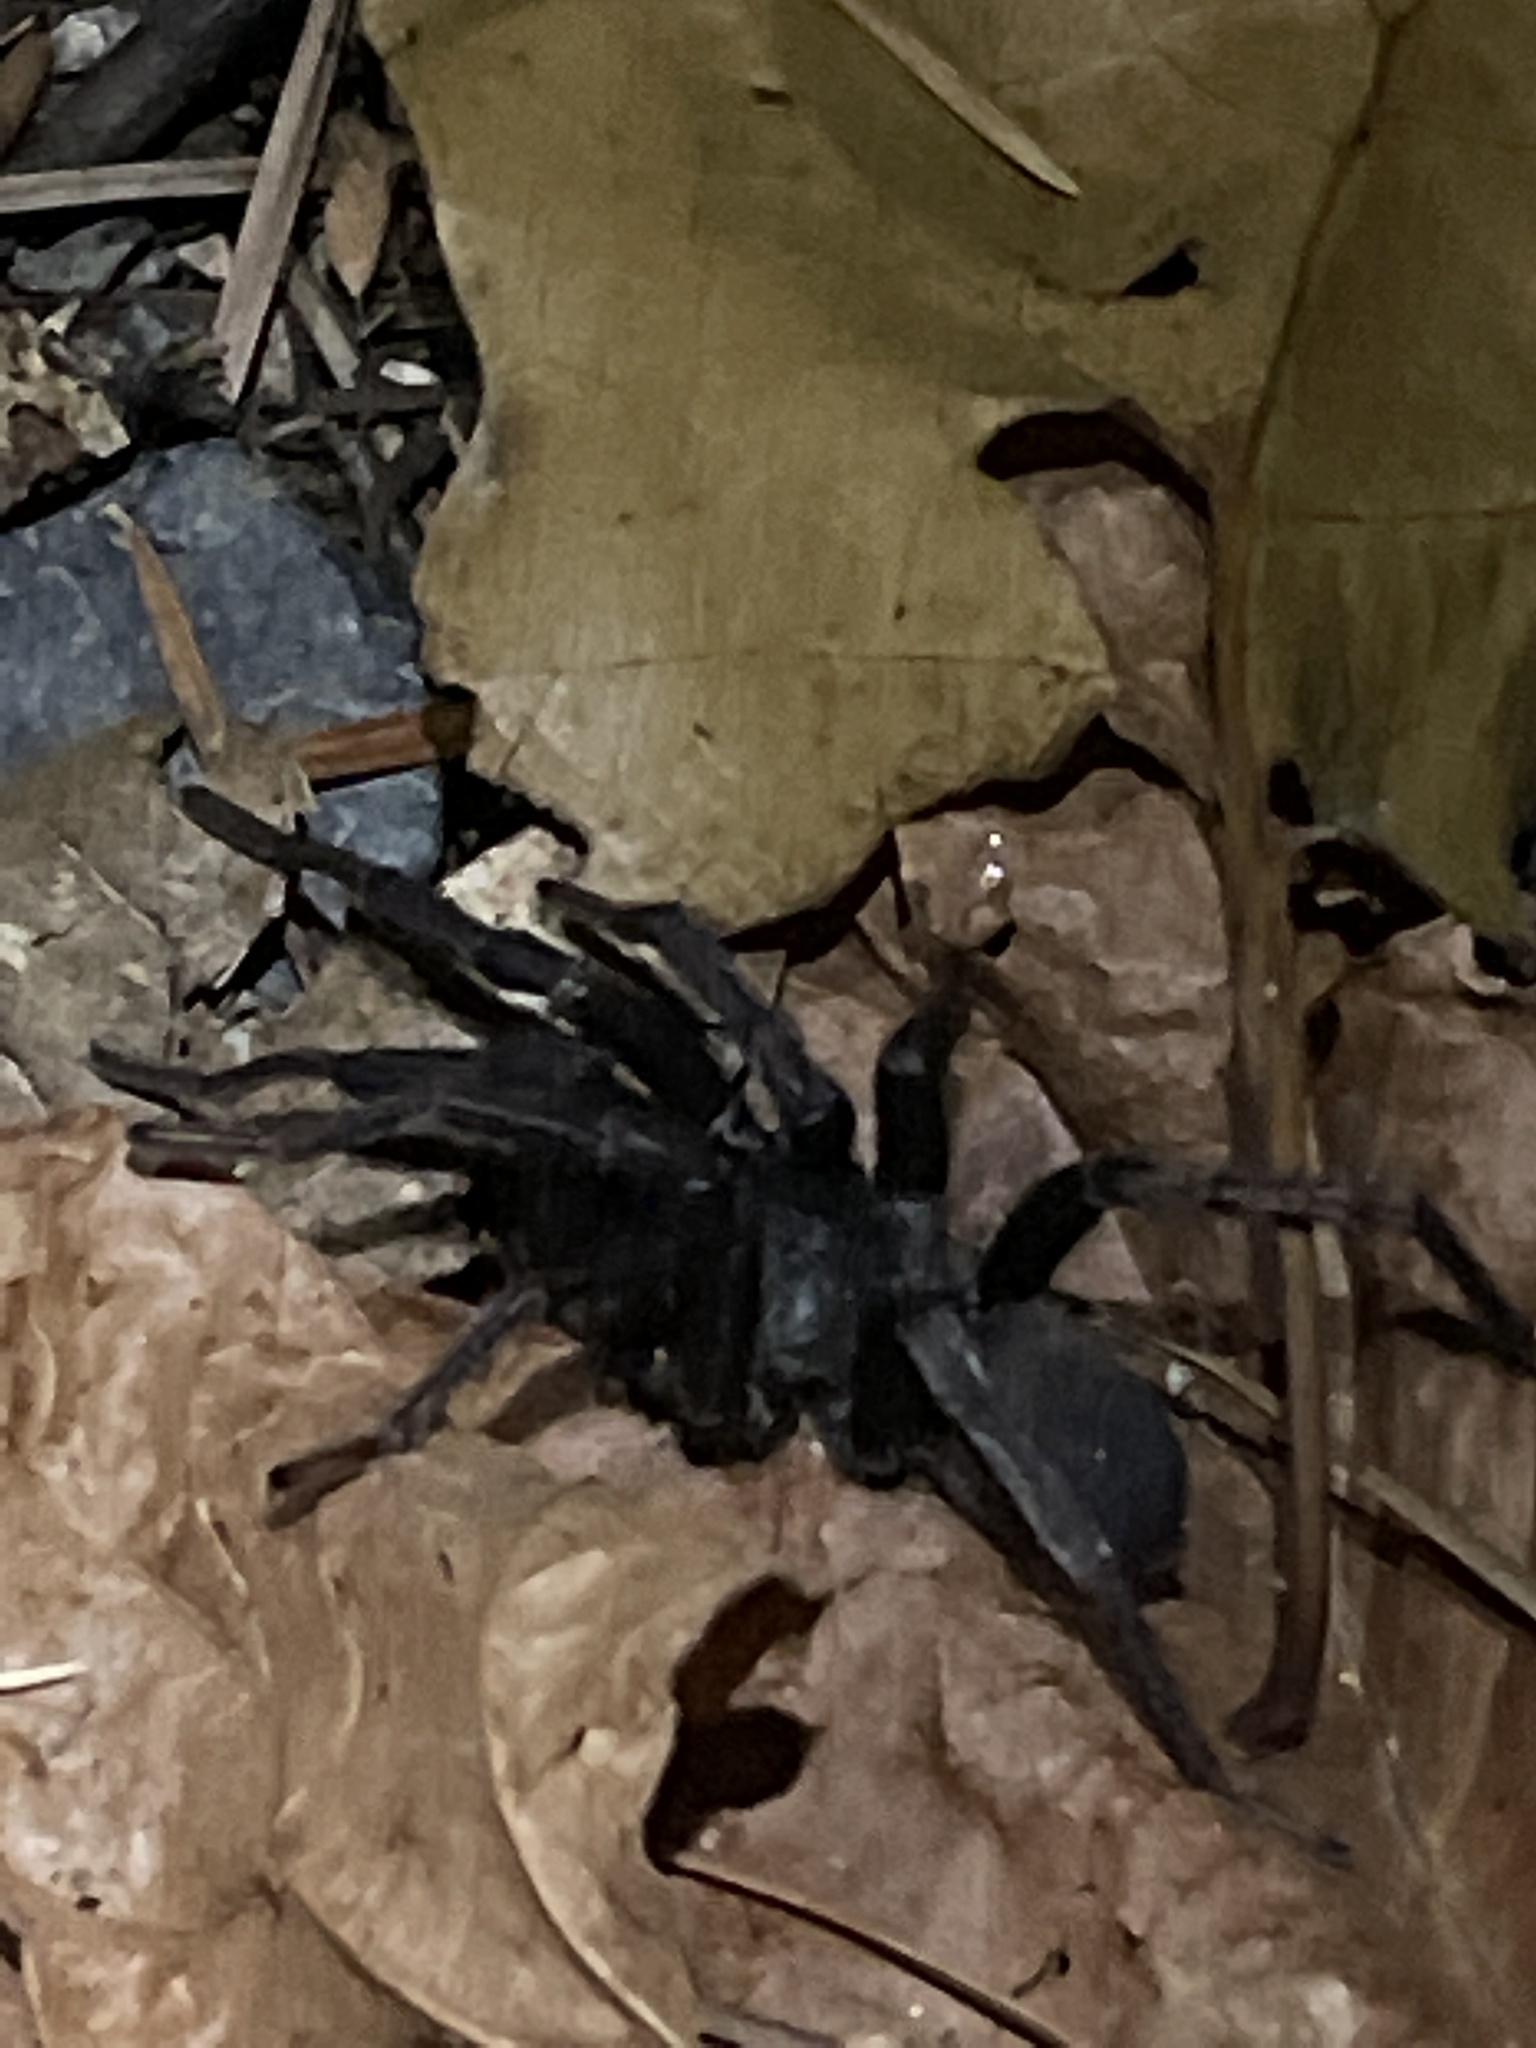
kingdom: Animalia
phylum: Arthropoda
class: Arachnida
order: Araneae
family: Nemesiidae
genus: Calisoga
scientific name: Calisoga longitarsis
